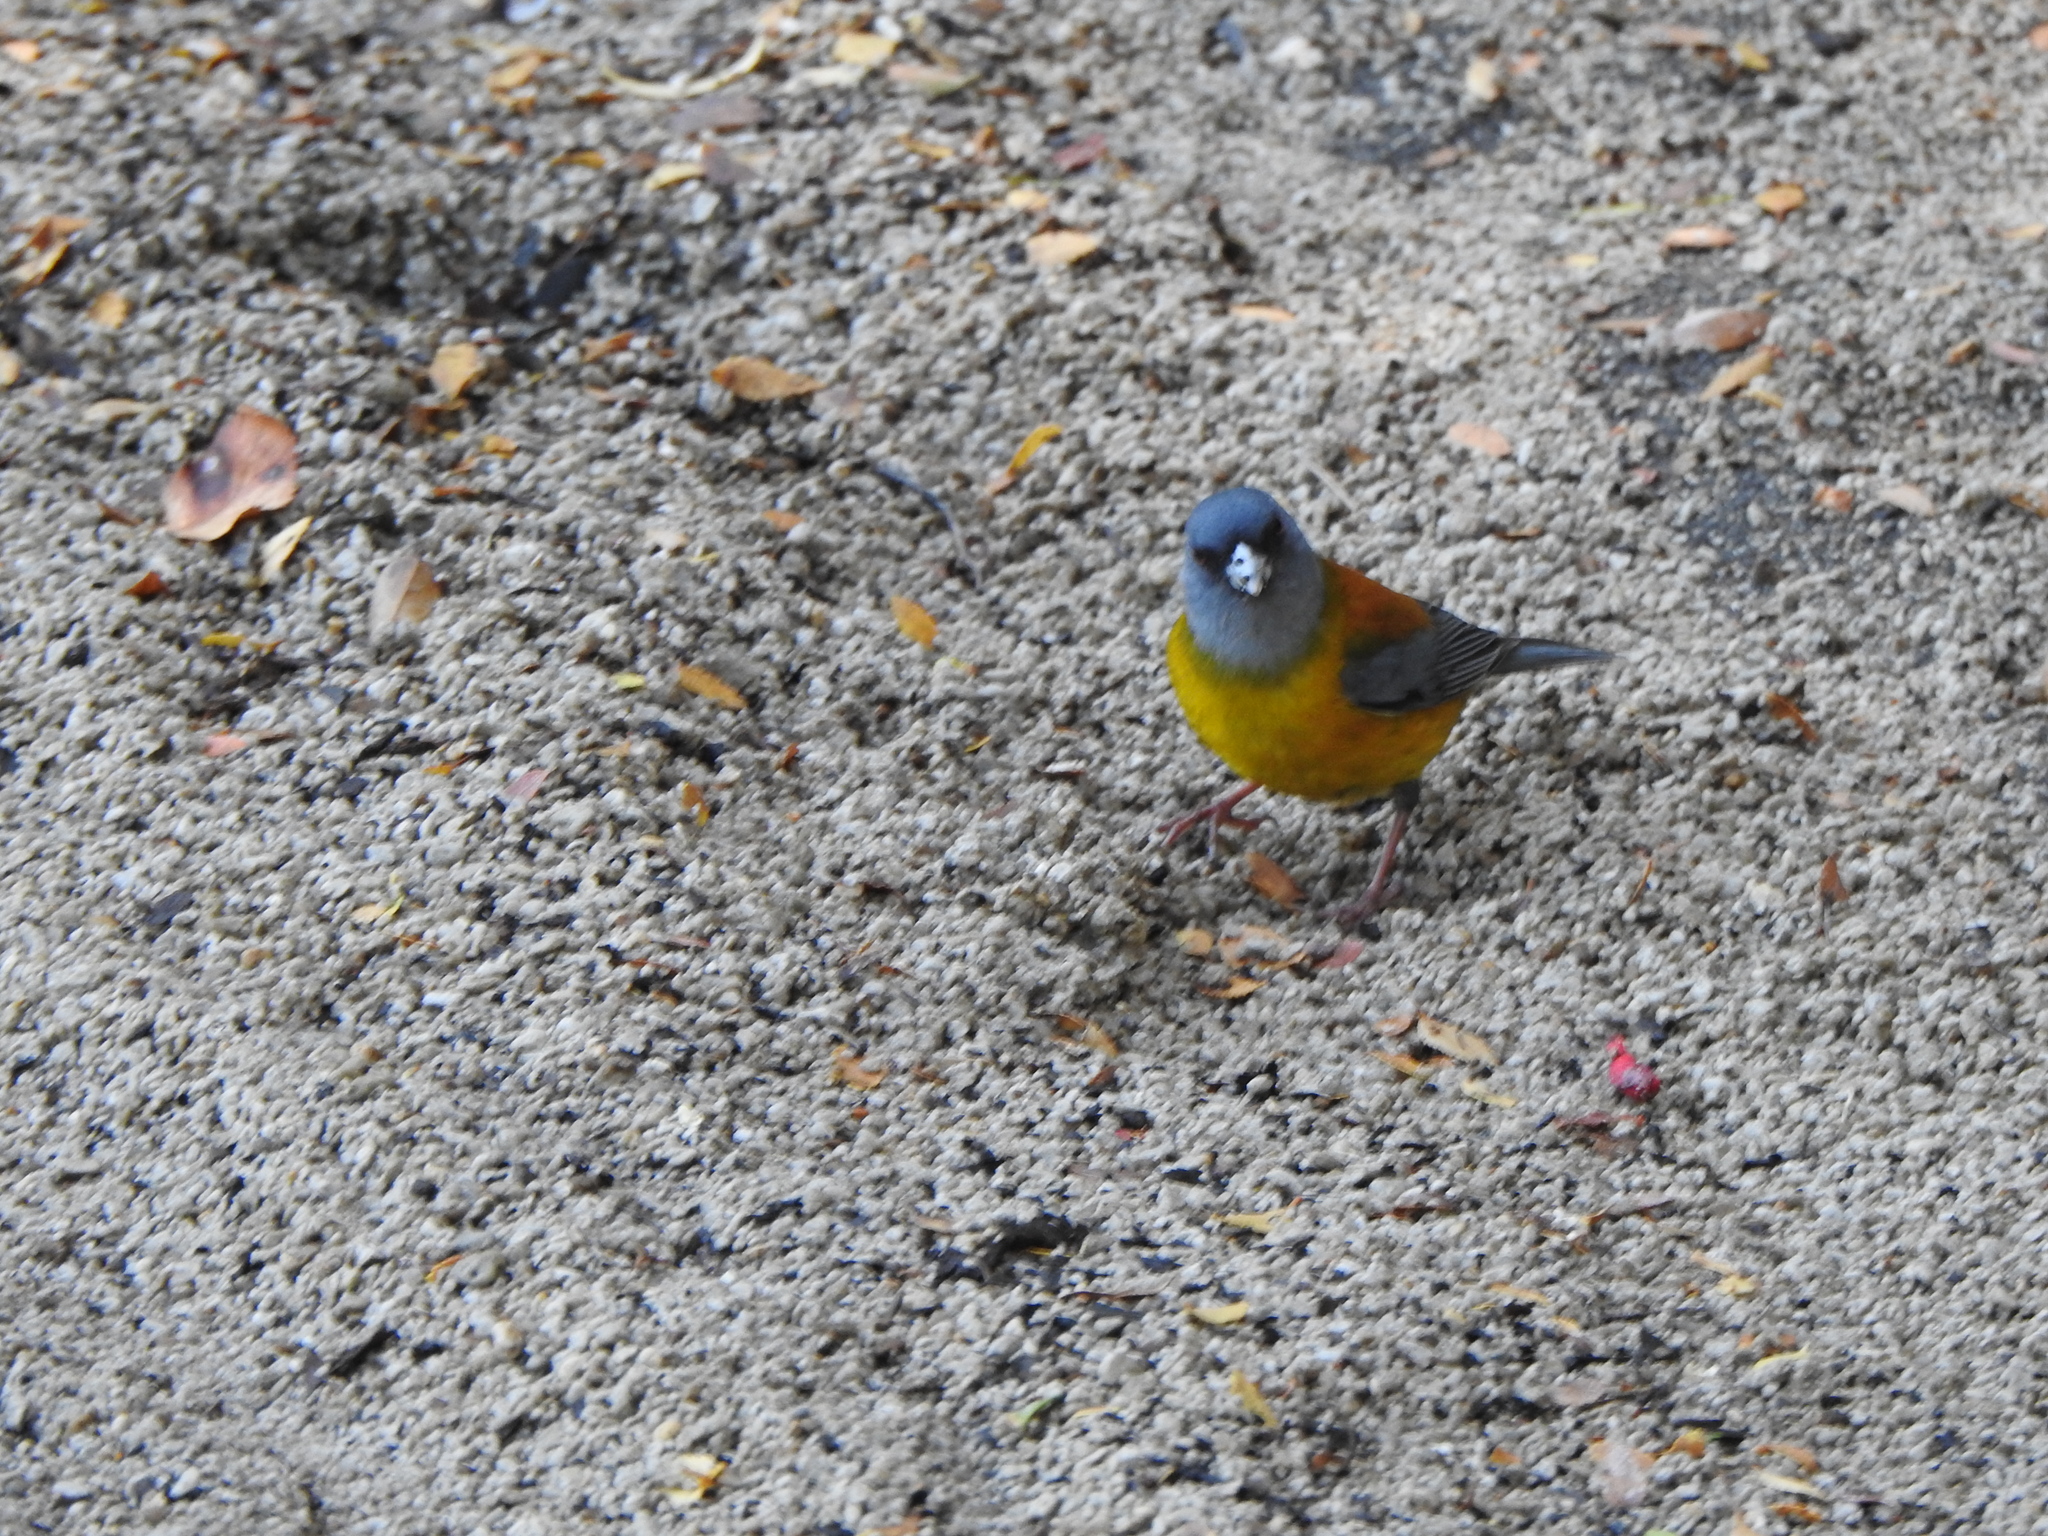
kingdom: Animalia
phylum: Chordata
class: Aves
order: Passeriformes
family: Thraupidae
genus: Phrygilus
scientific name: Phrygilus patagonicus
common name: Patagonian sierra finch
